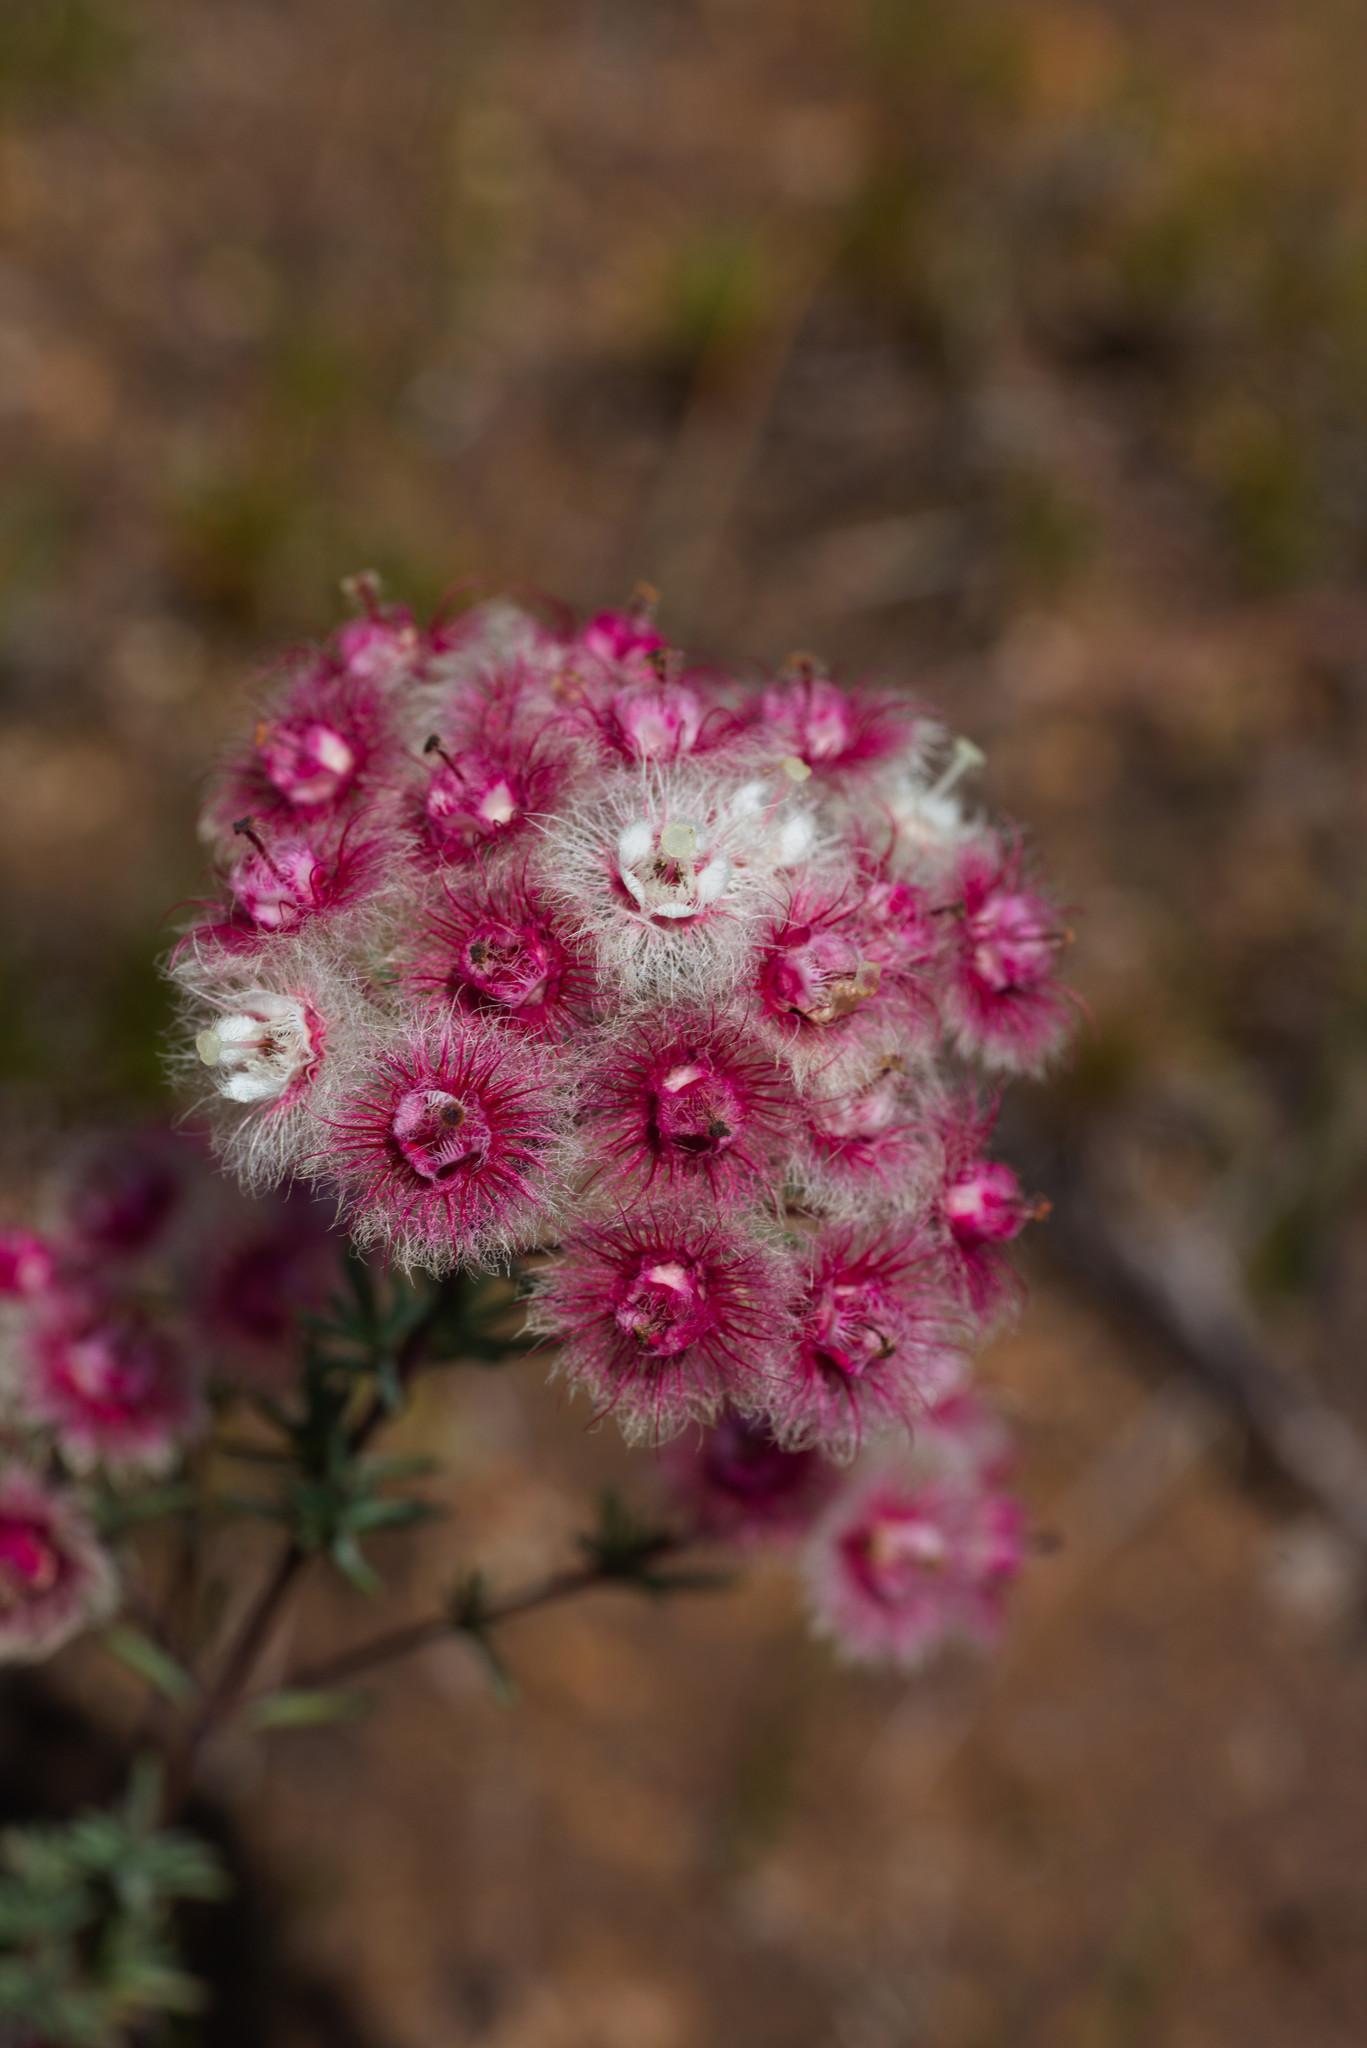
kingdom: Plantae
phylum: Tracheophyta
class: Magnoliopsida
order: Myrtales
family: Myrtaceae
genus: Verticordia
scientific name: Verticordia huegelii
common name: Variegate feather-flower
